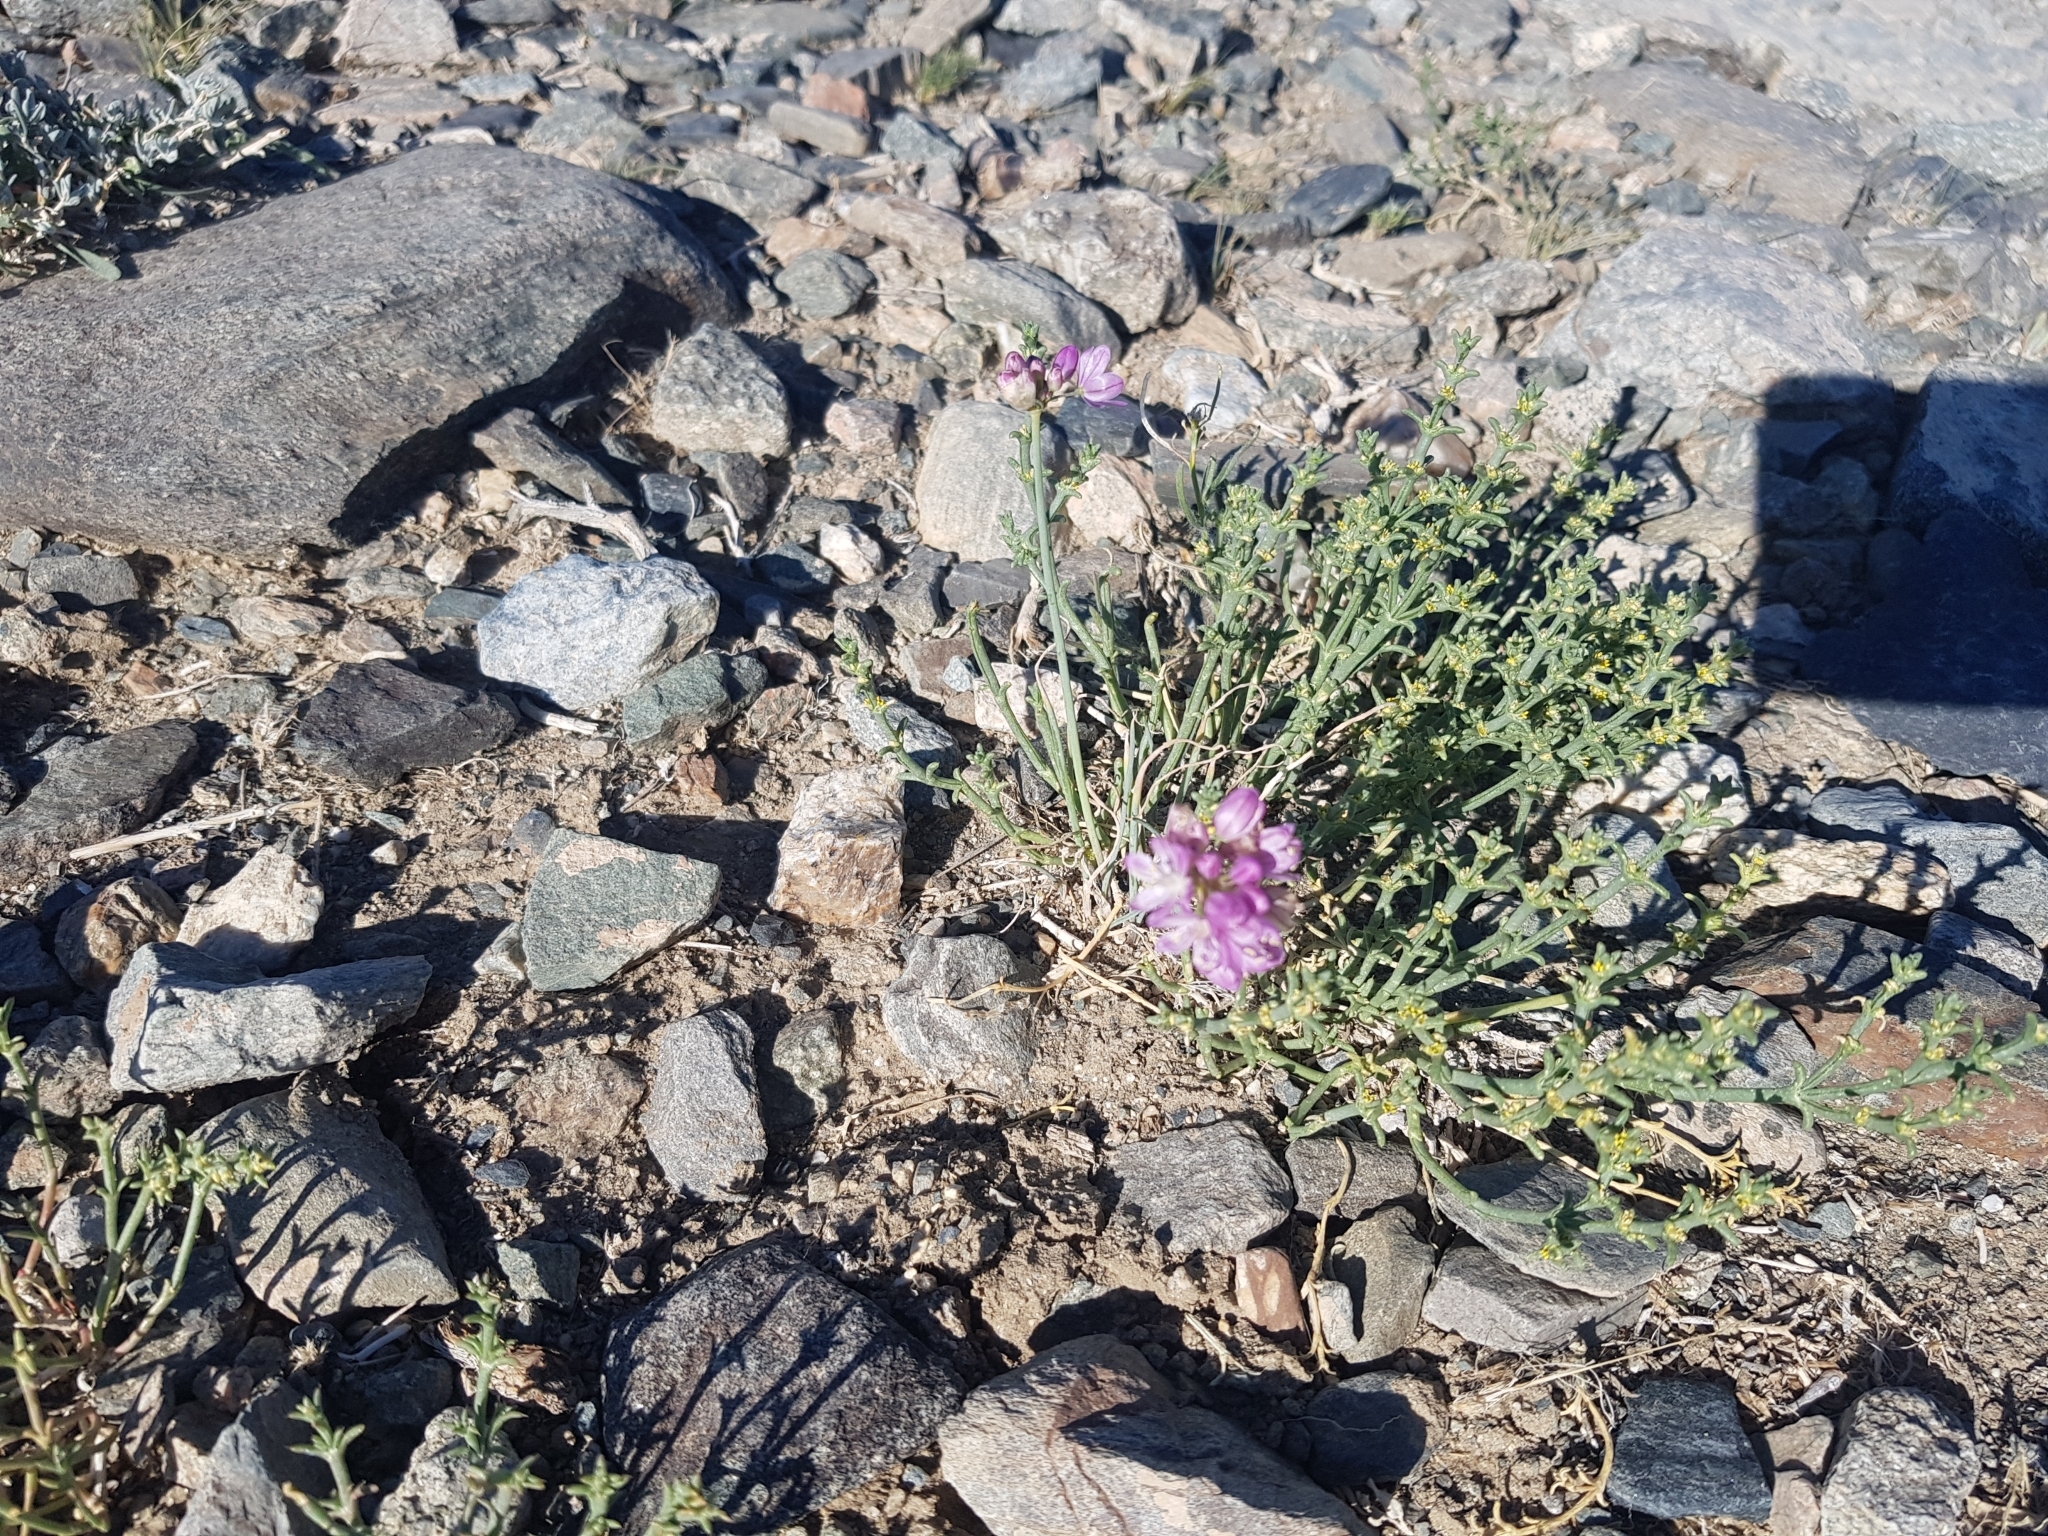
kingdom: Plantae
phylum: Tracheophyta
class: Liliopsida
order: Asparagales
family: Amaryllidaceae
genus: Allium
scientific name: Allium mongolicum
